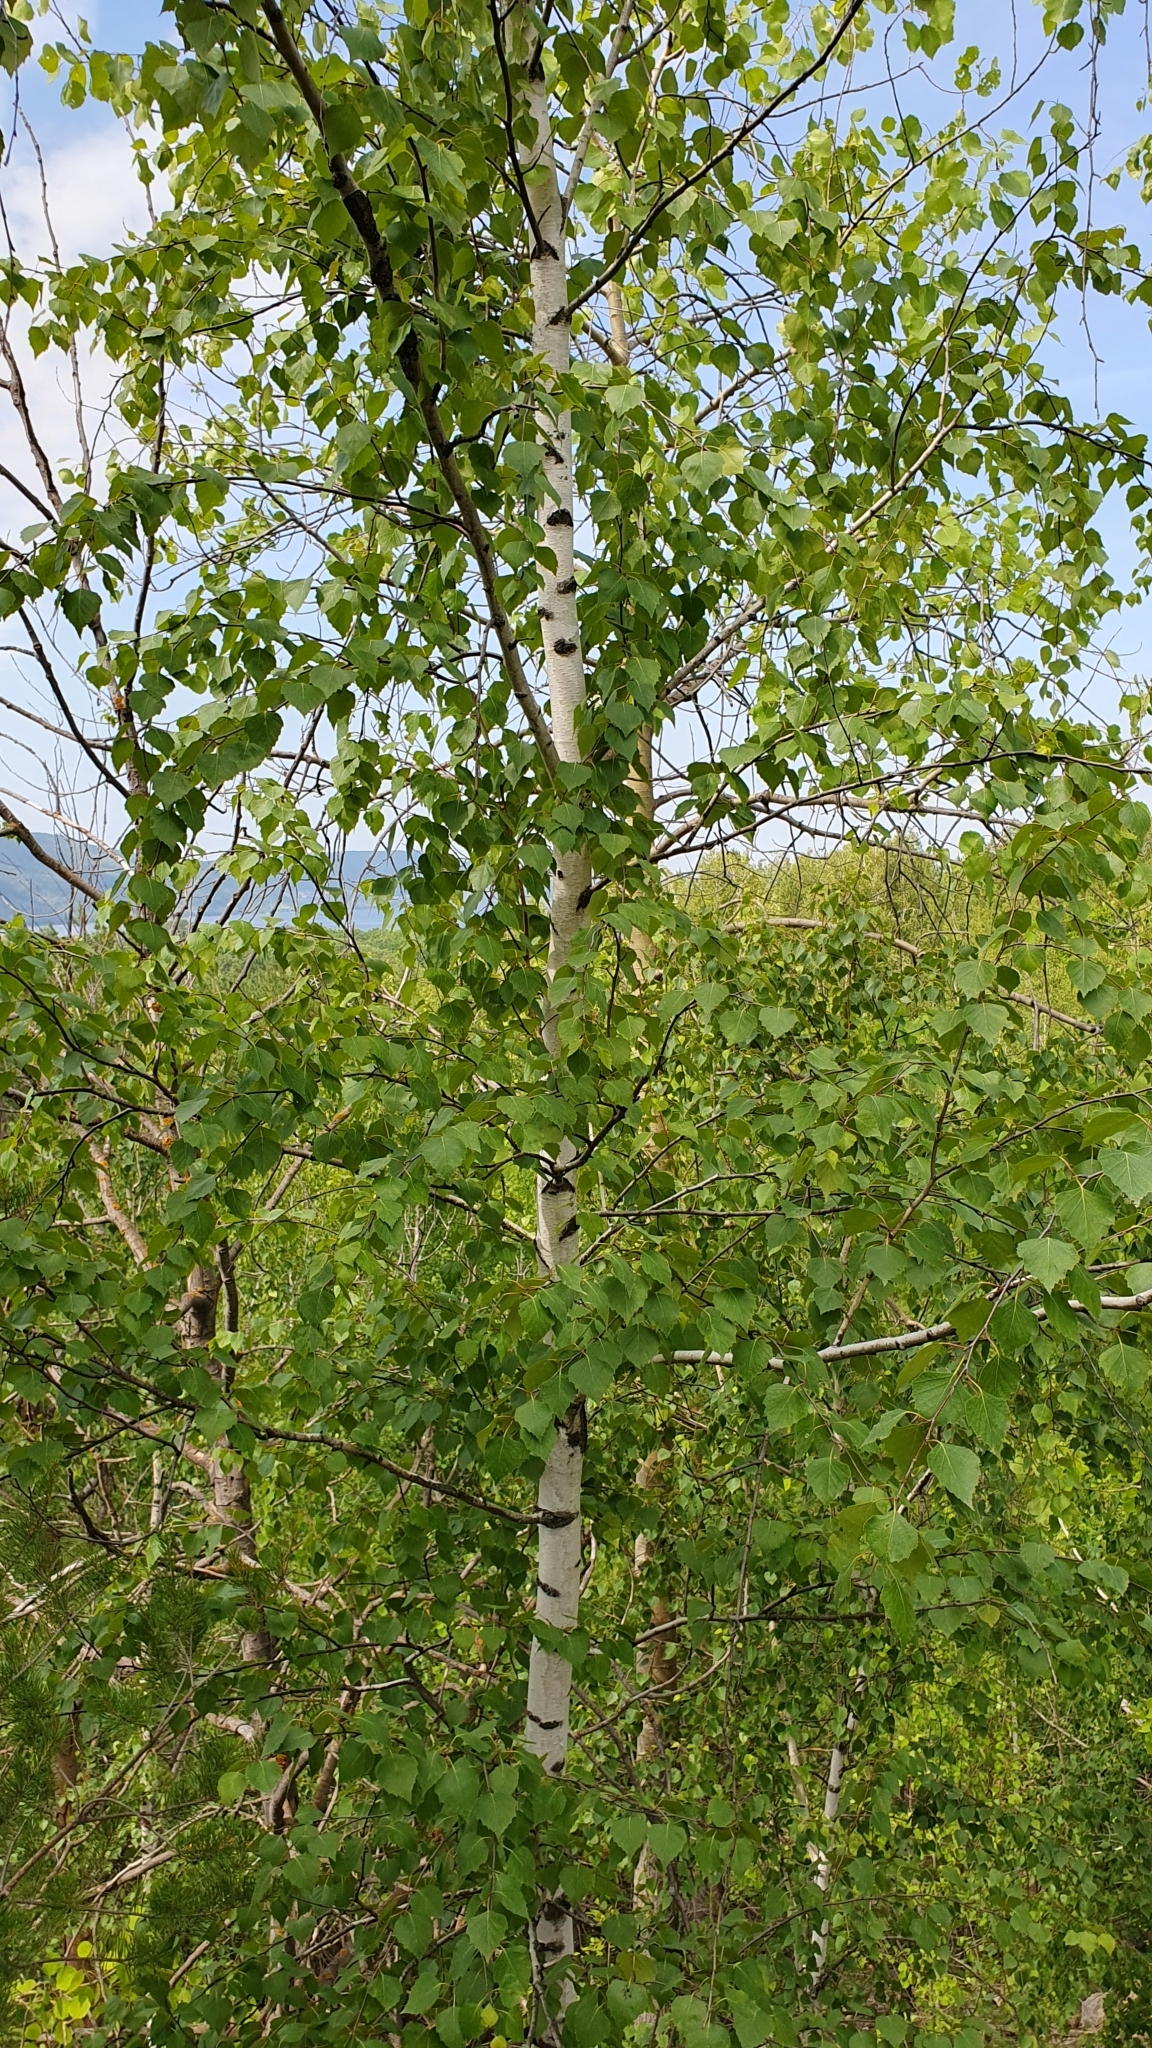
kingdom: Plantae
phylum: Tracheophyta
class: Magnoliopsida
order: Fagales
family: Betulaceae
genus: Betula
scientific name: Betula pendula
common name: Silver birch
